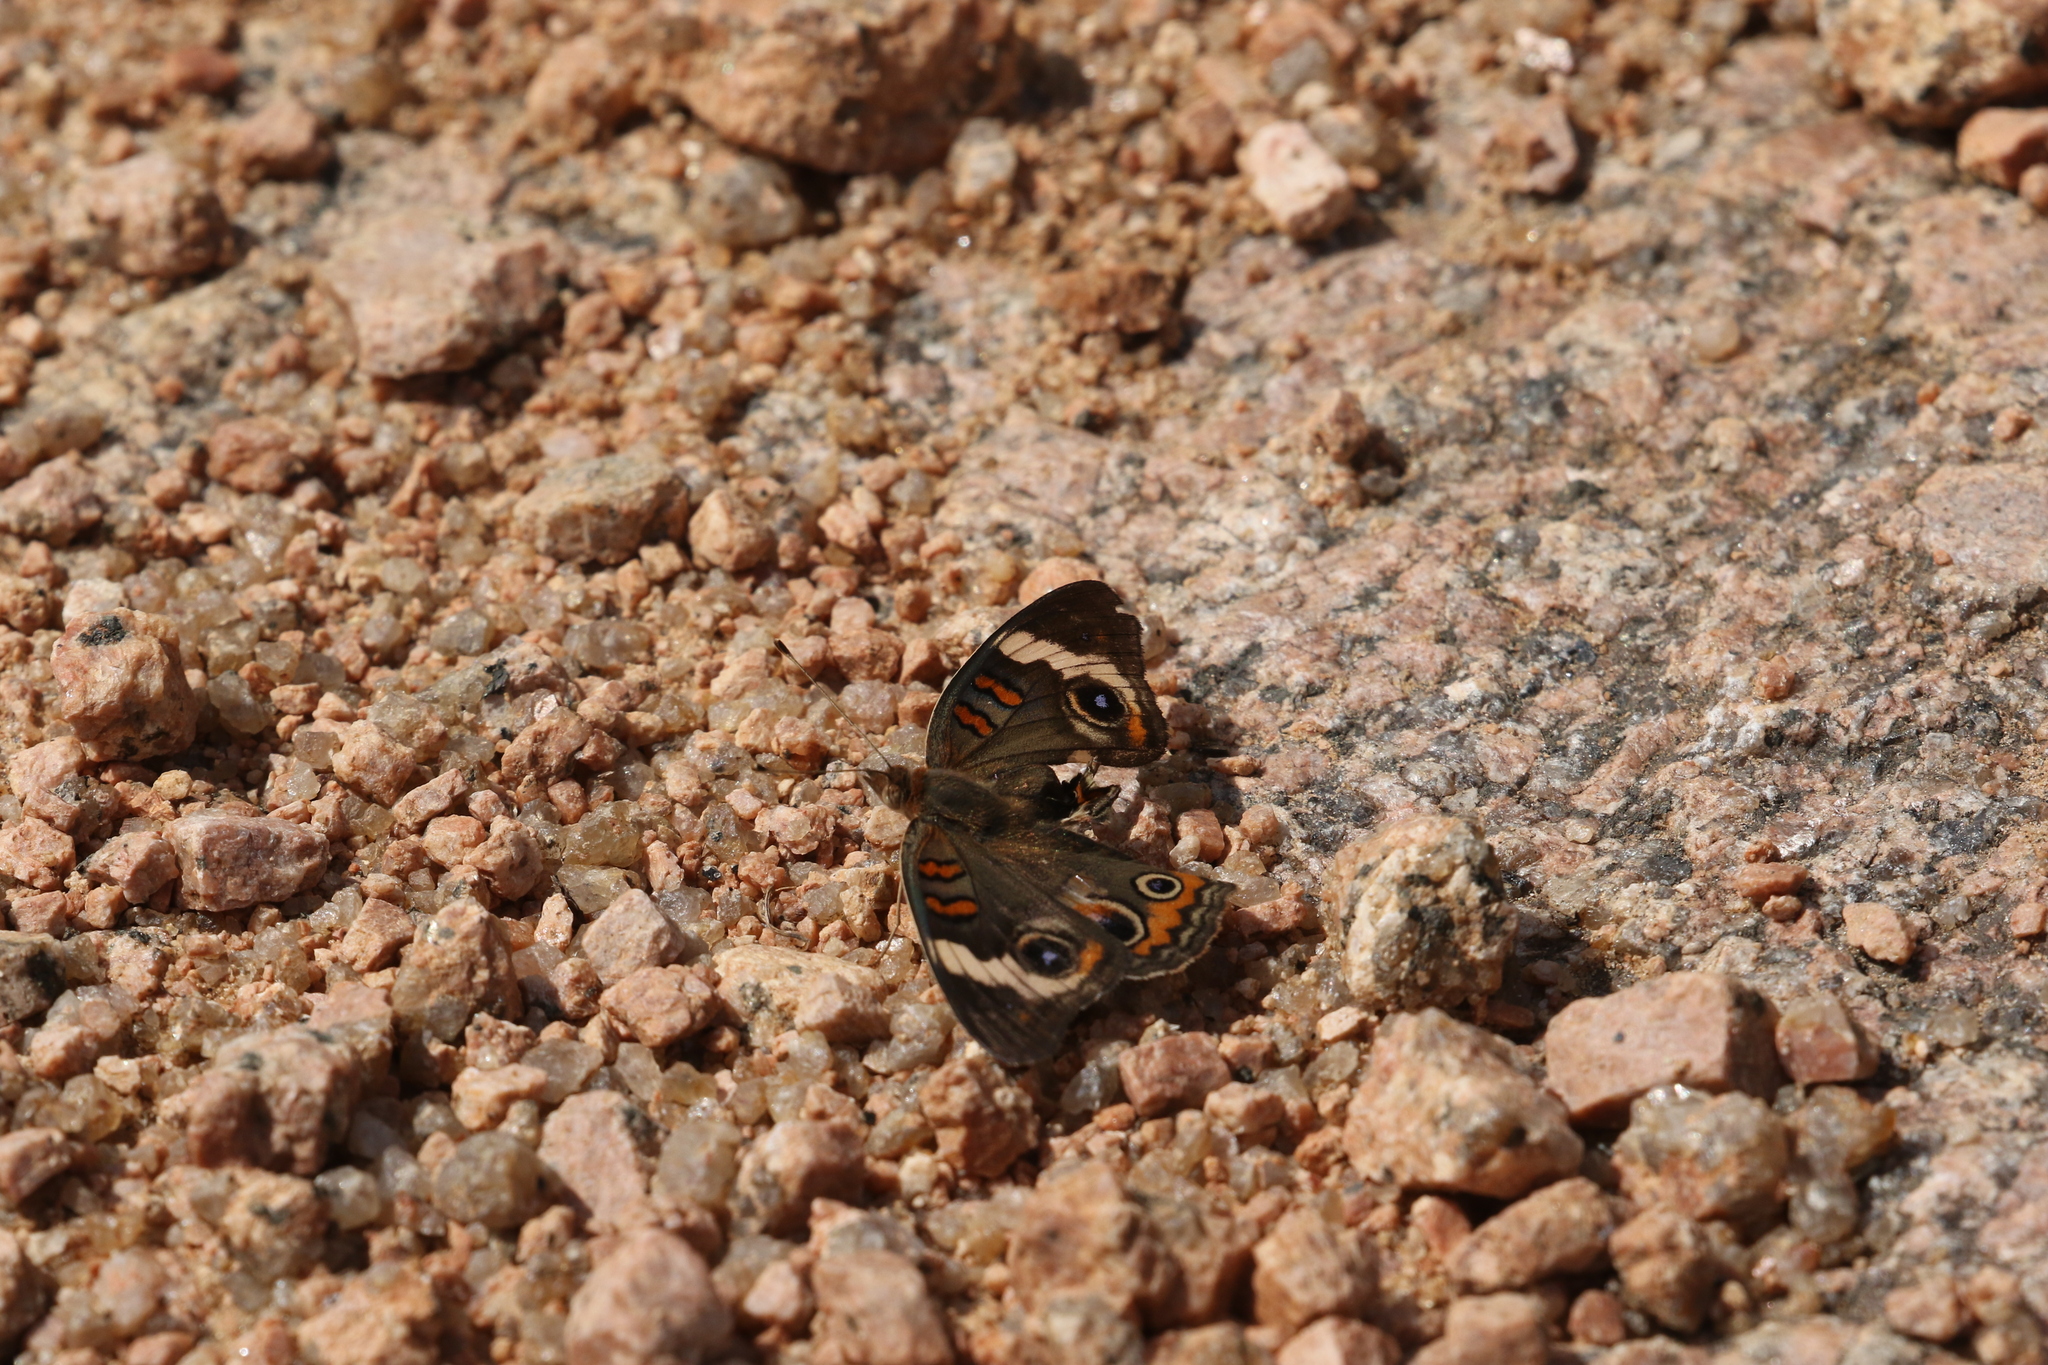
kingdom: Animalia
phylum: Arthropoda
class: Insecta
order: Lepidoptera
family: Nymphalidae
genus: Junonia
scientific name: Junonia coenia
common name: Common buckeye
